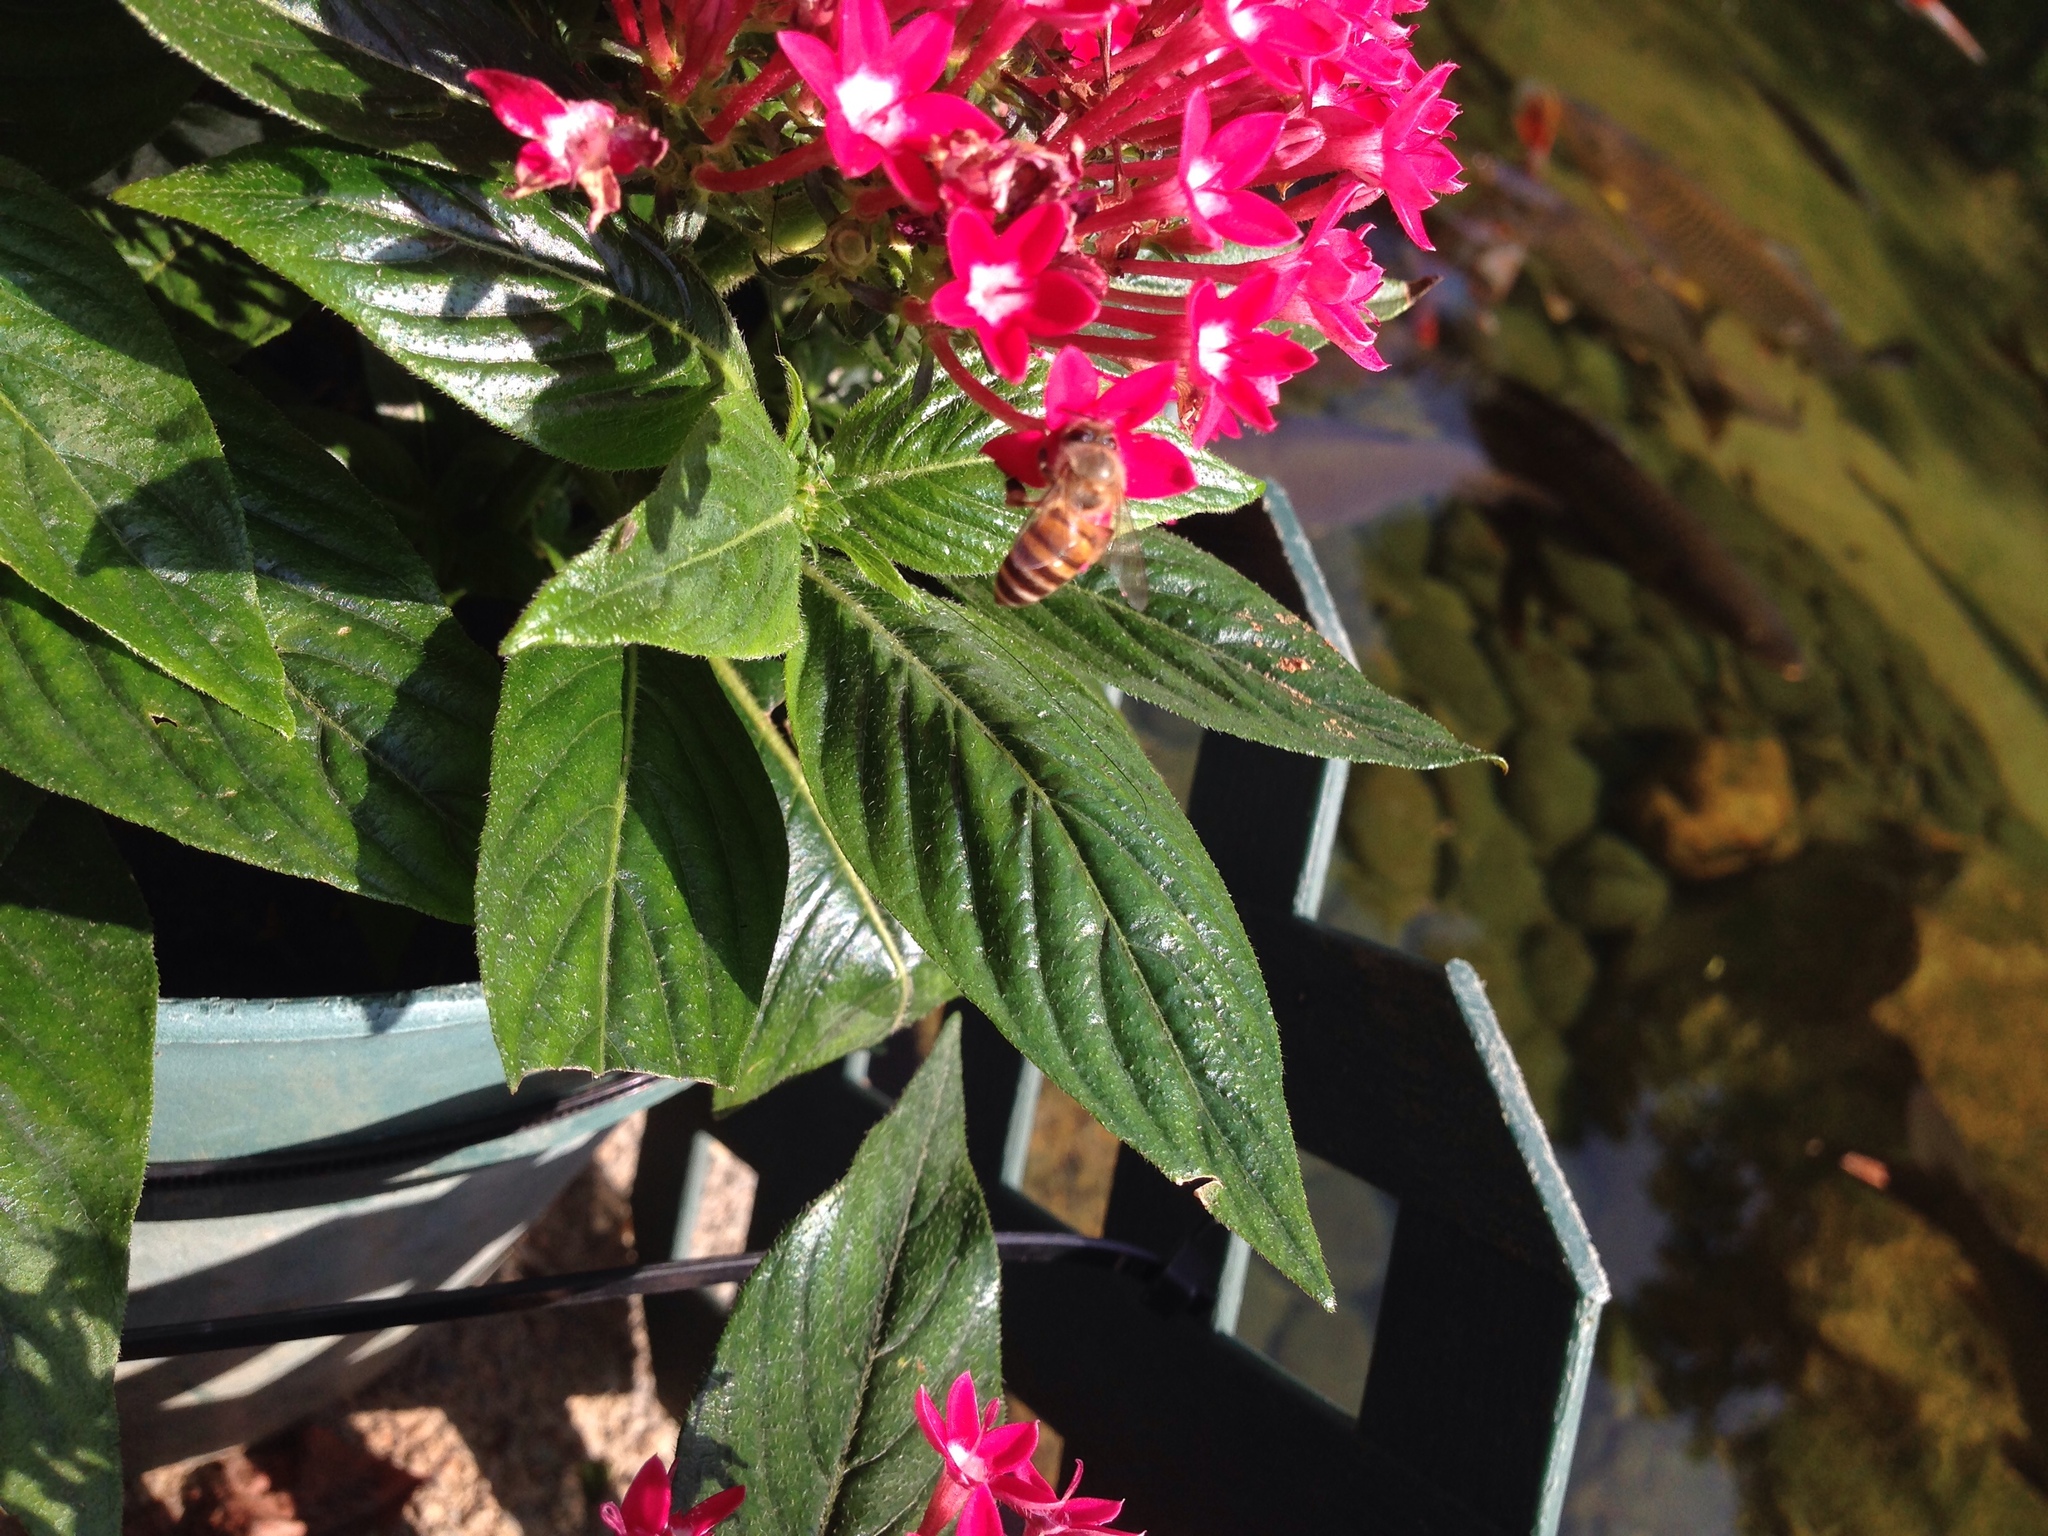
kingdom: Animalia
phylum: Arthropoda
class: Insecta
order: Hymenoptera
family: Apidae
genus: Apis
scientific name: Apis cerana
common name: Honey bee
